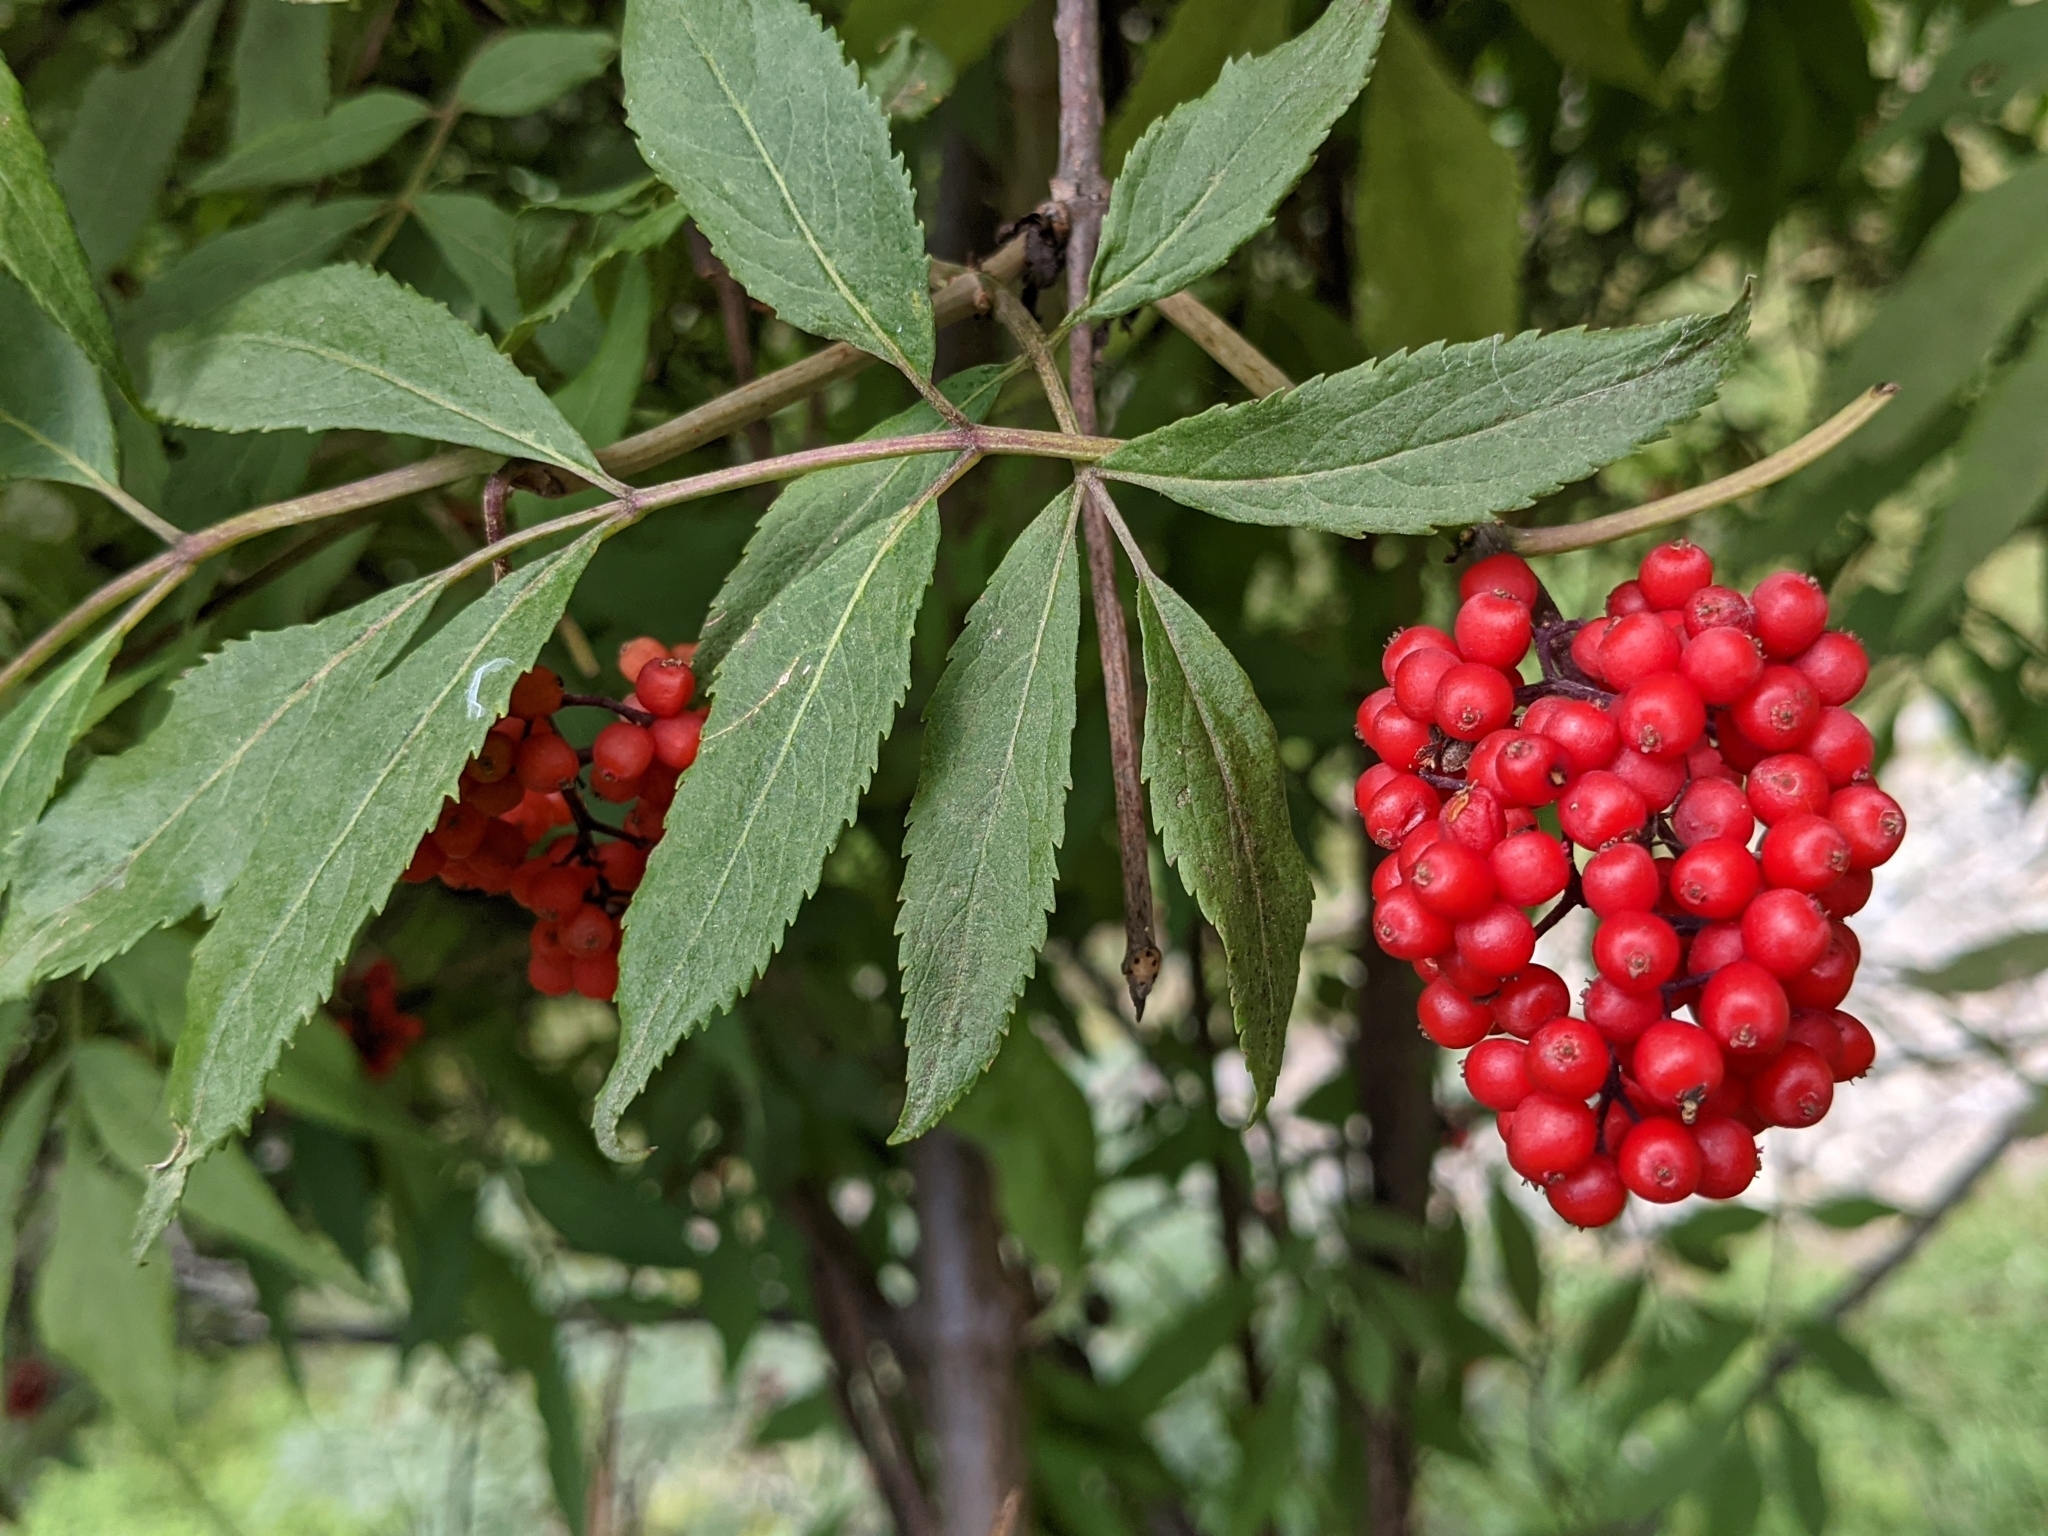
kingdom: Plantae
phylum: Tracheophyta
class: Magnoliopsida
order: Dipsacales
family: Viburnaceae
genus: Sambucus
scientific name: Sambucus racemosa
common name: Red-berried elder
